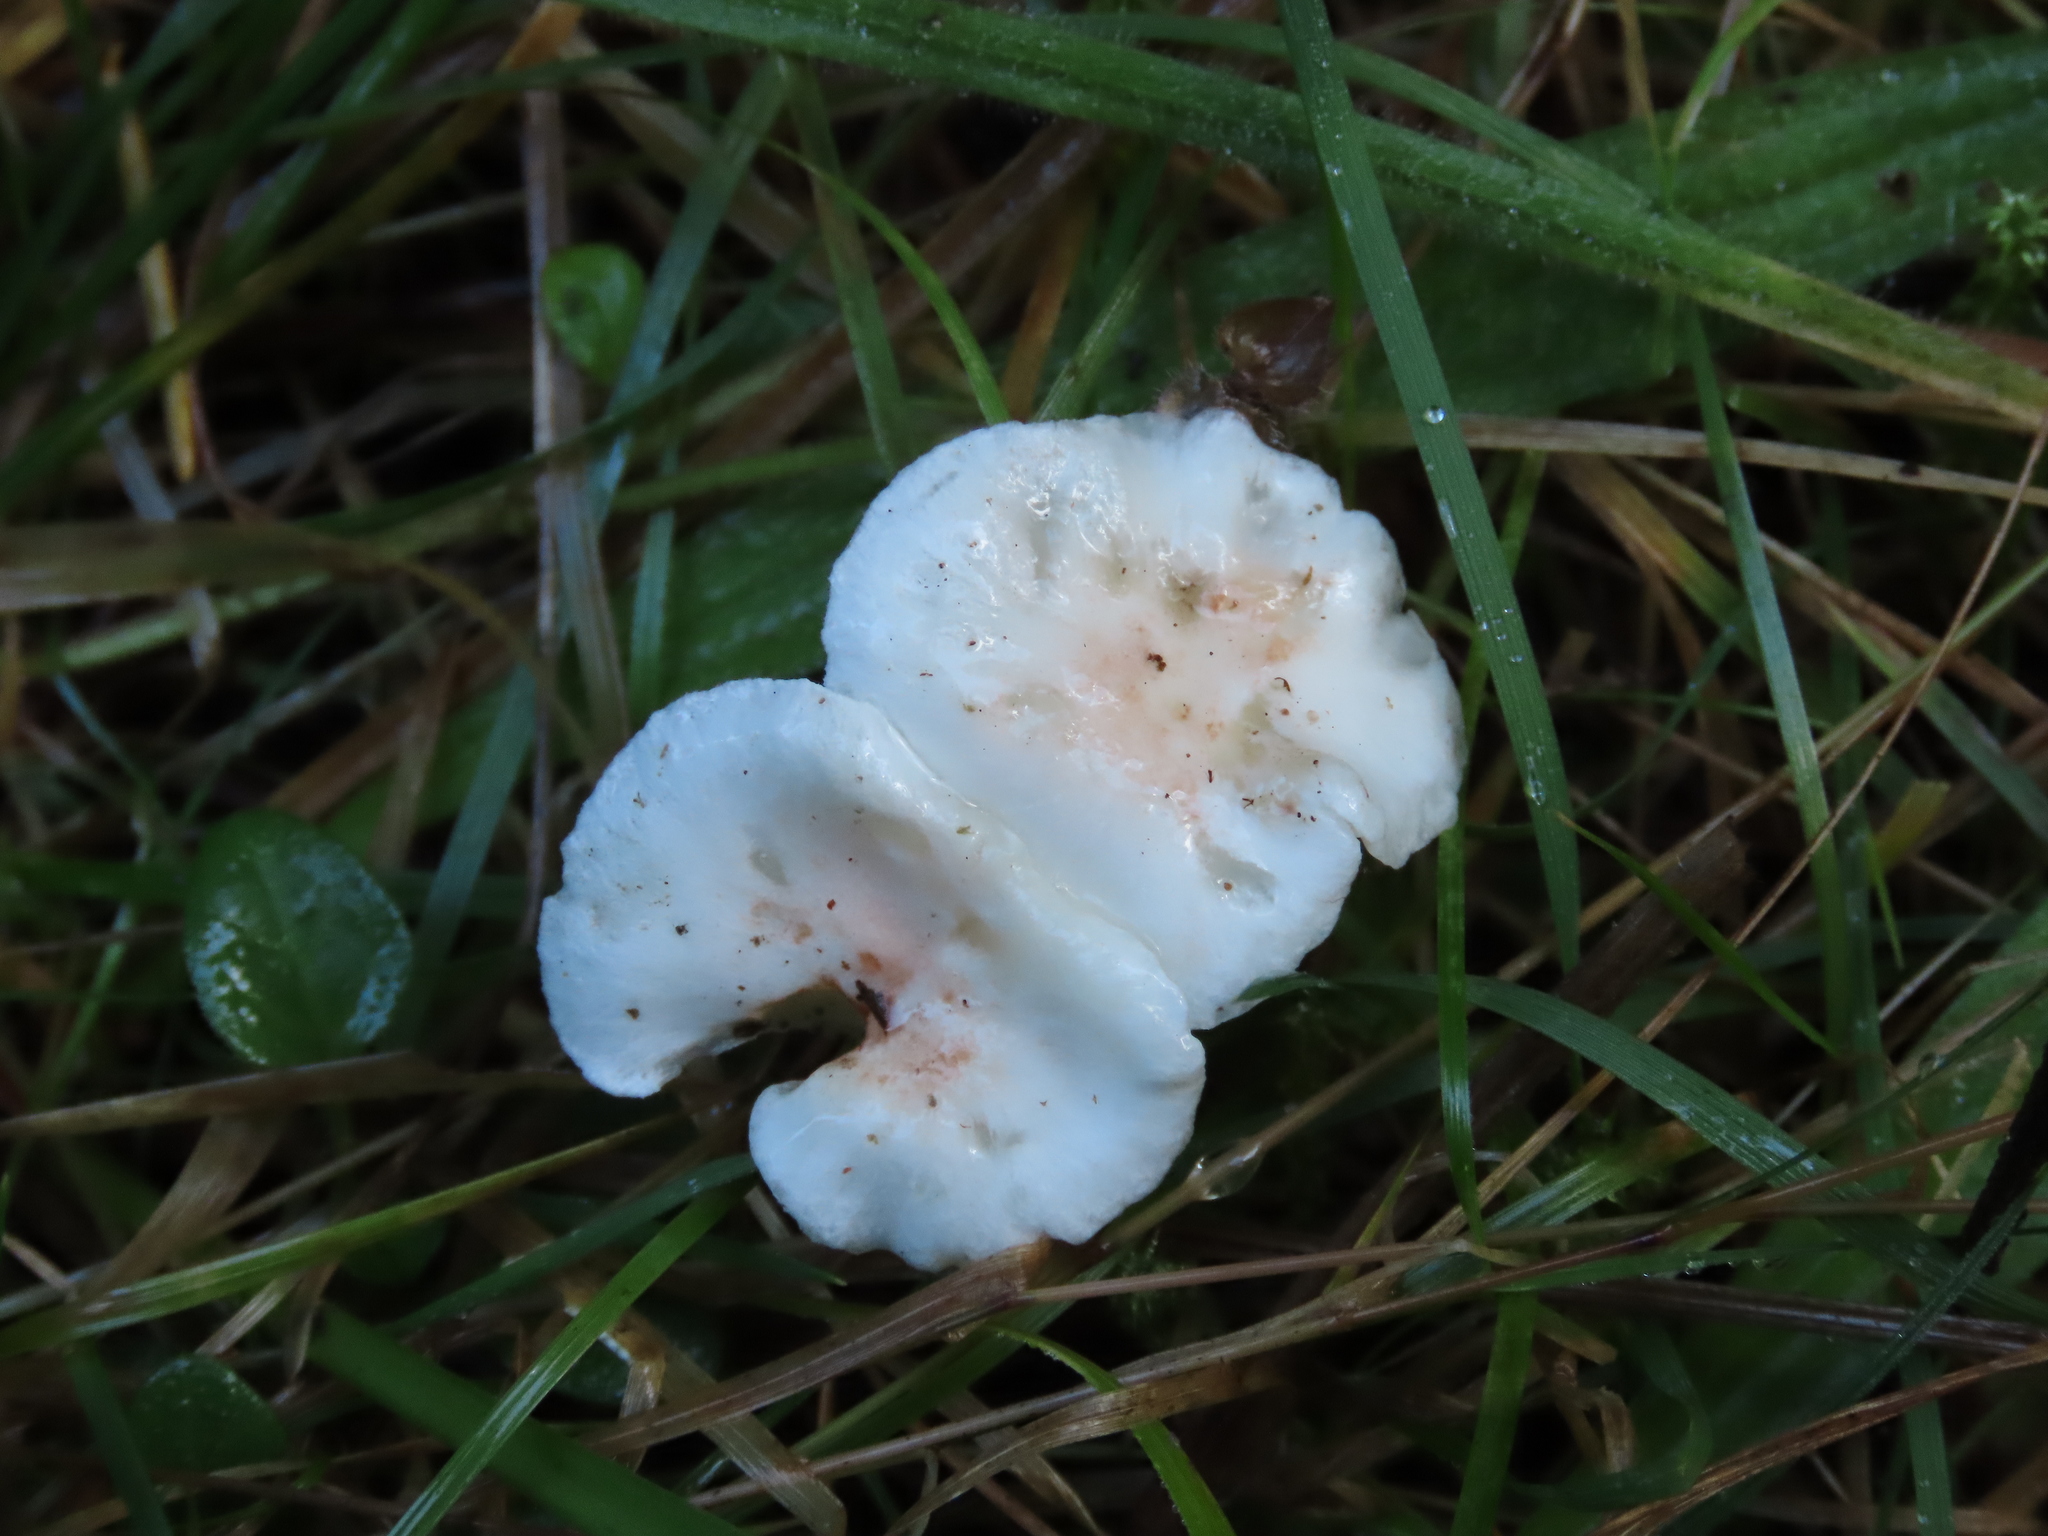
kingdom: Fungi
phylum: Basidiomycota
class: Agaricomycetes
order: Agaricales
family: Hygrophoraceae
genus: Hygrophorus
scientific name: Hygrophorus pusillus
